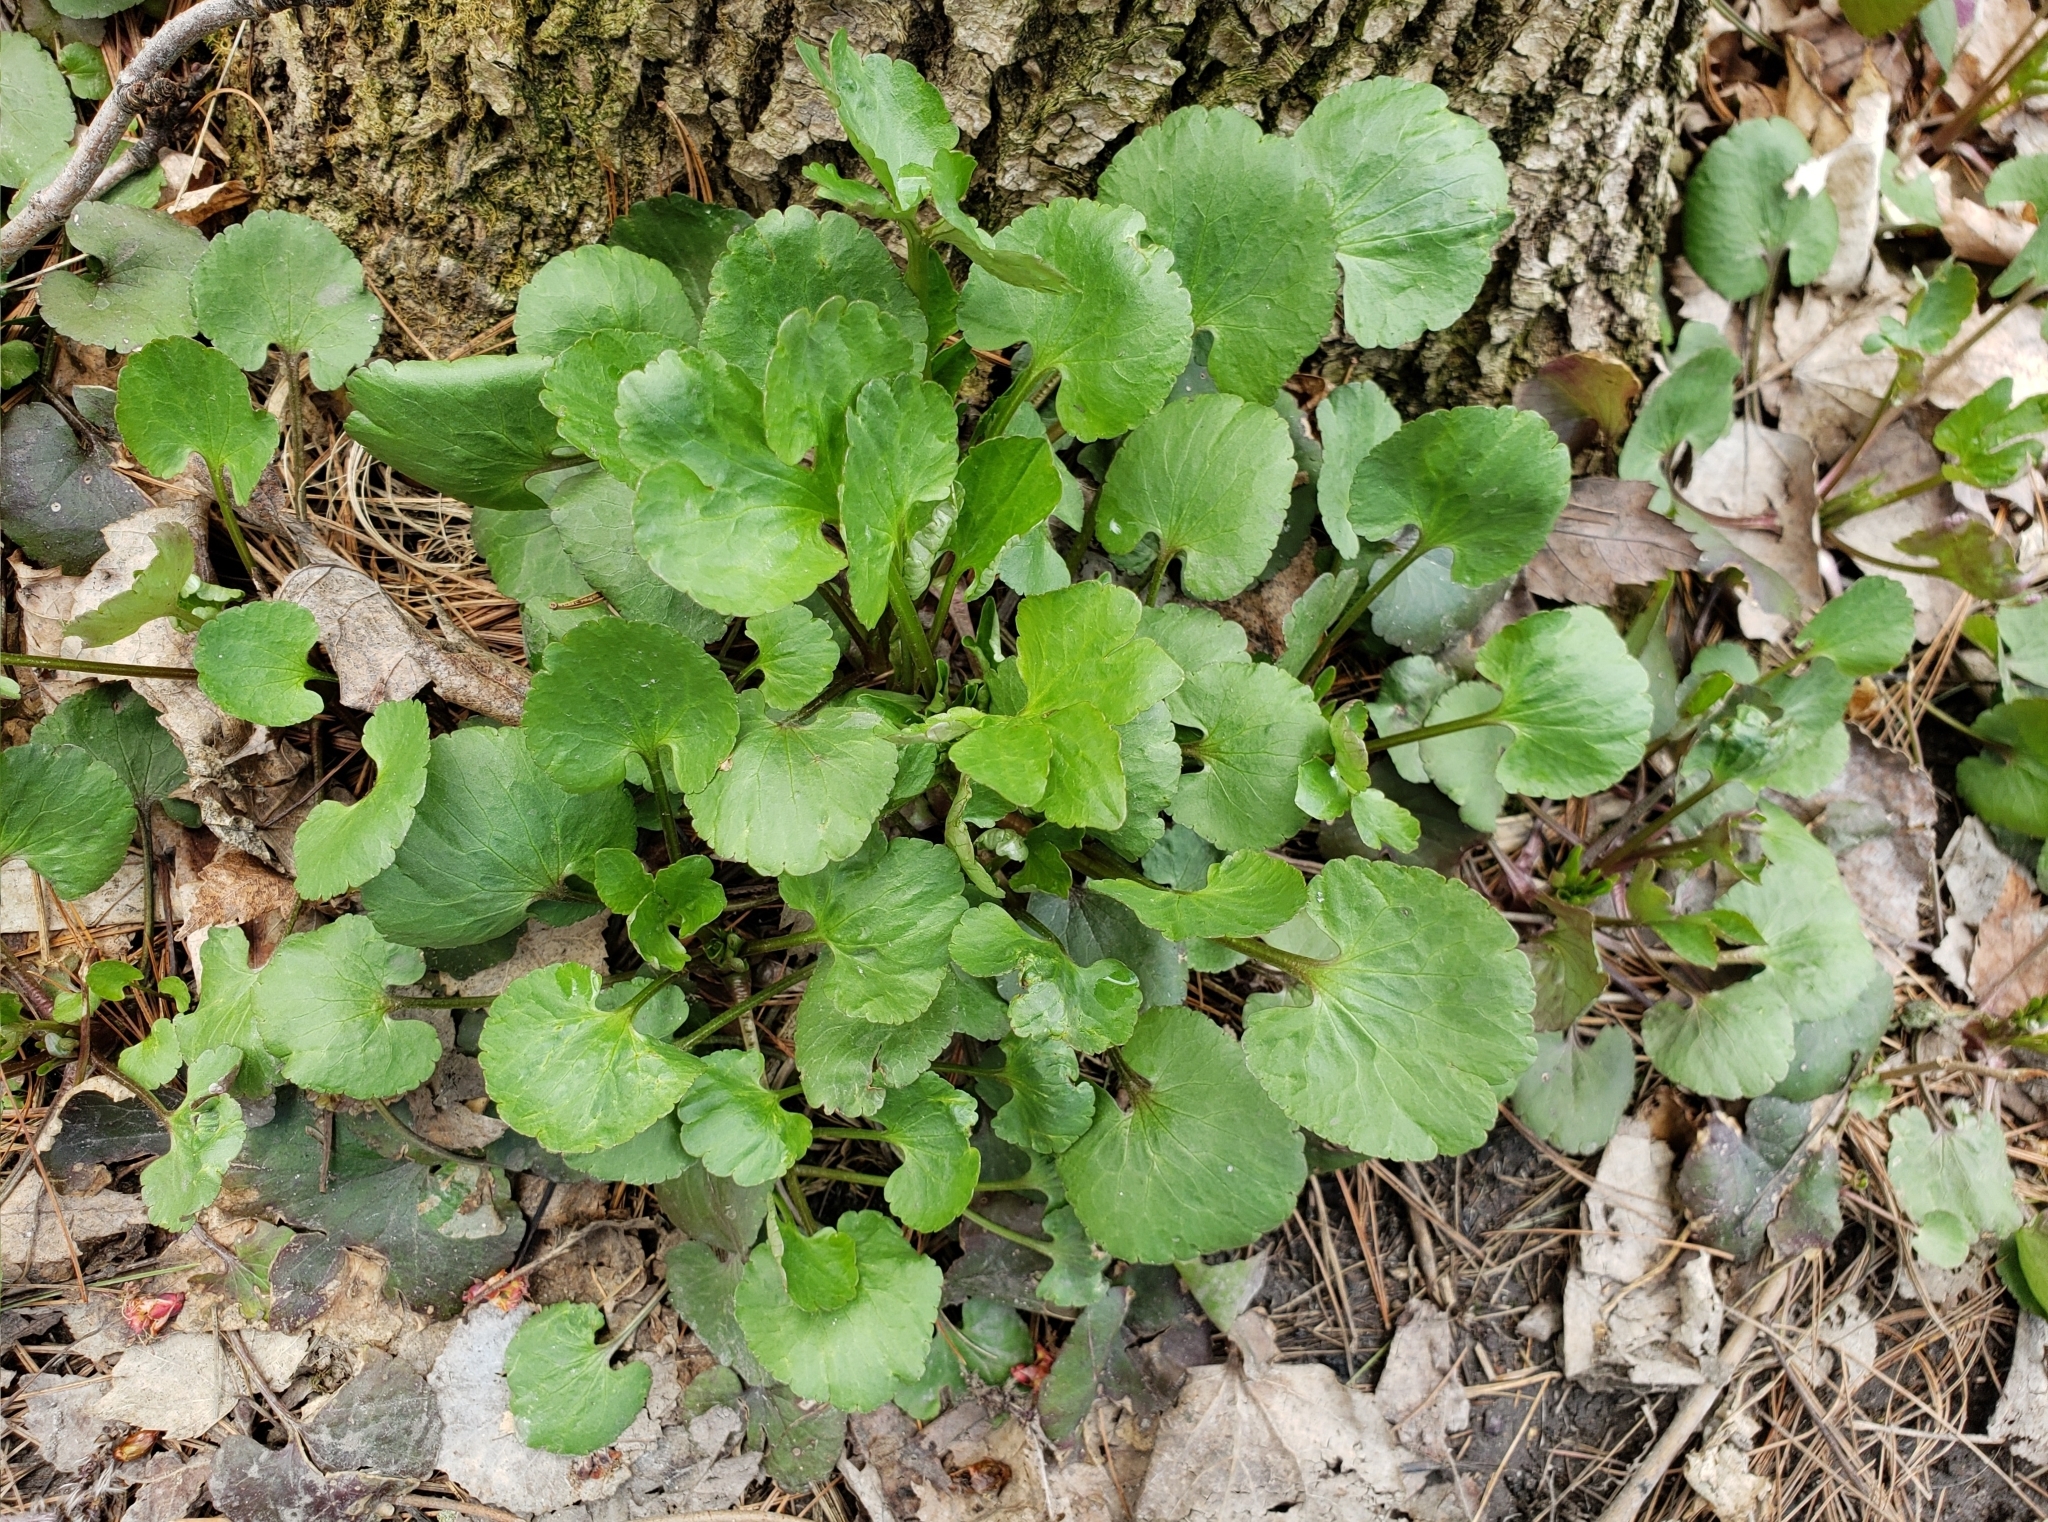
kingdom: Plantae
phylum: Tracheophyta
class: Magnoliopsida
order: Ranunculales
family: Ranunculaceae
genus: Ranunculus
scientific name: Ranunculus abortivus
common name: Early wood buttercup
